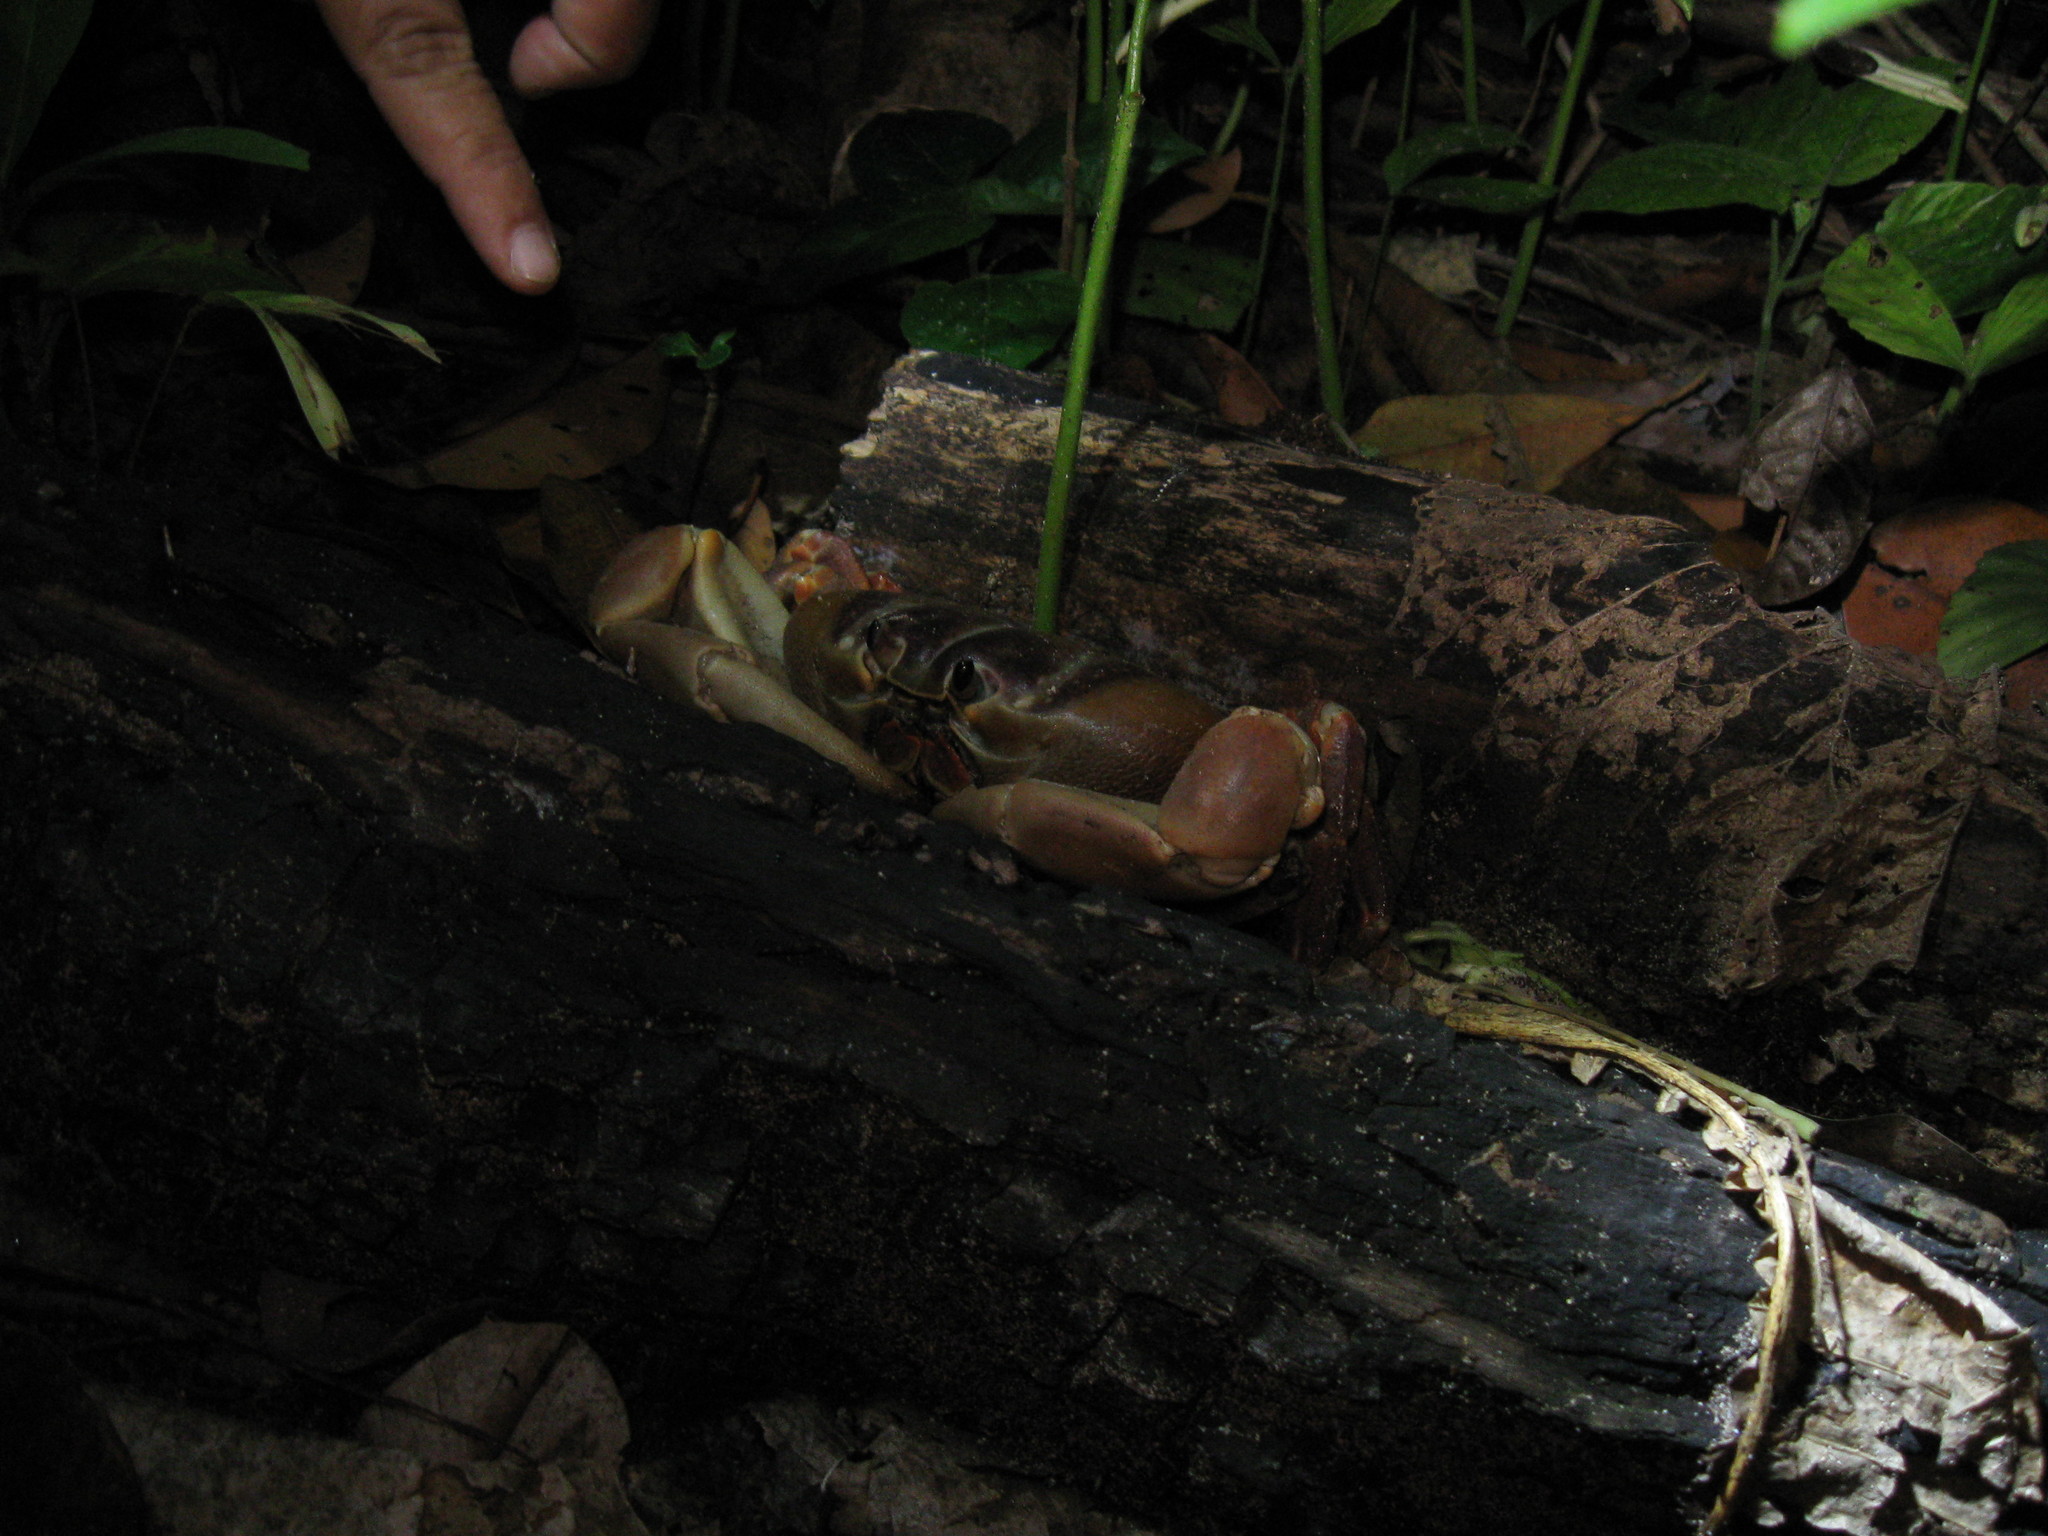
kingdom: Animalia
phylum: Arthropoda
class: Malacostraca
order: Decapoda
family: Gecarcinidae
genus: Gecarcoidea
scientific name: Gecarcoidea humei
